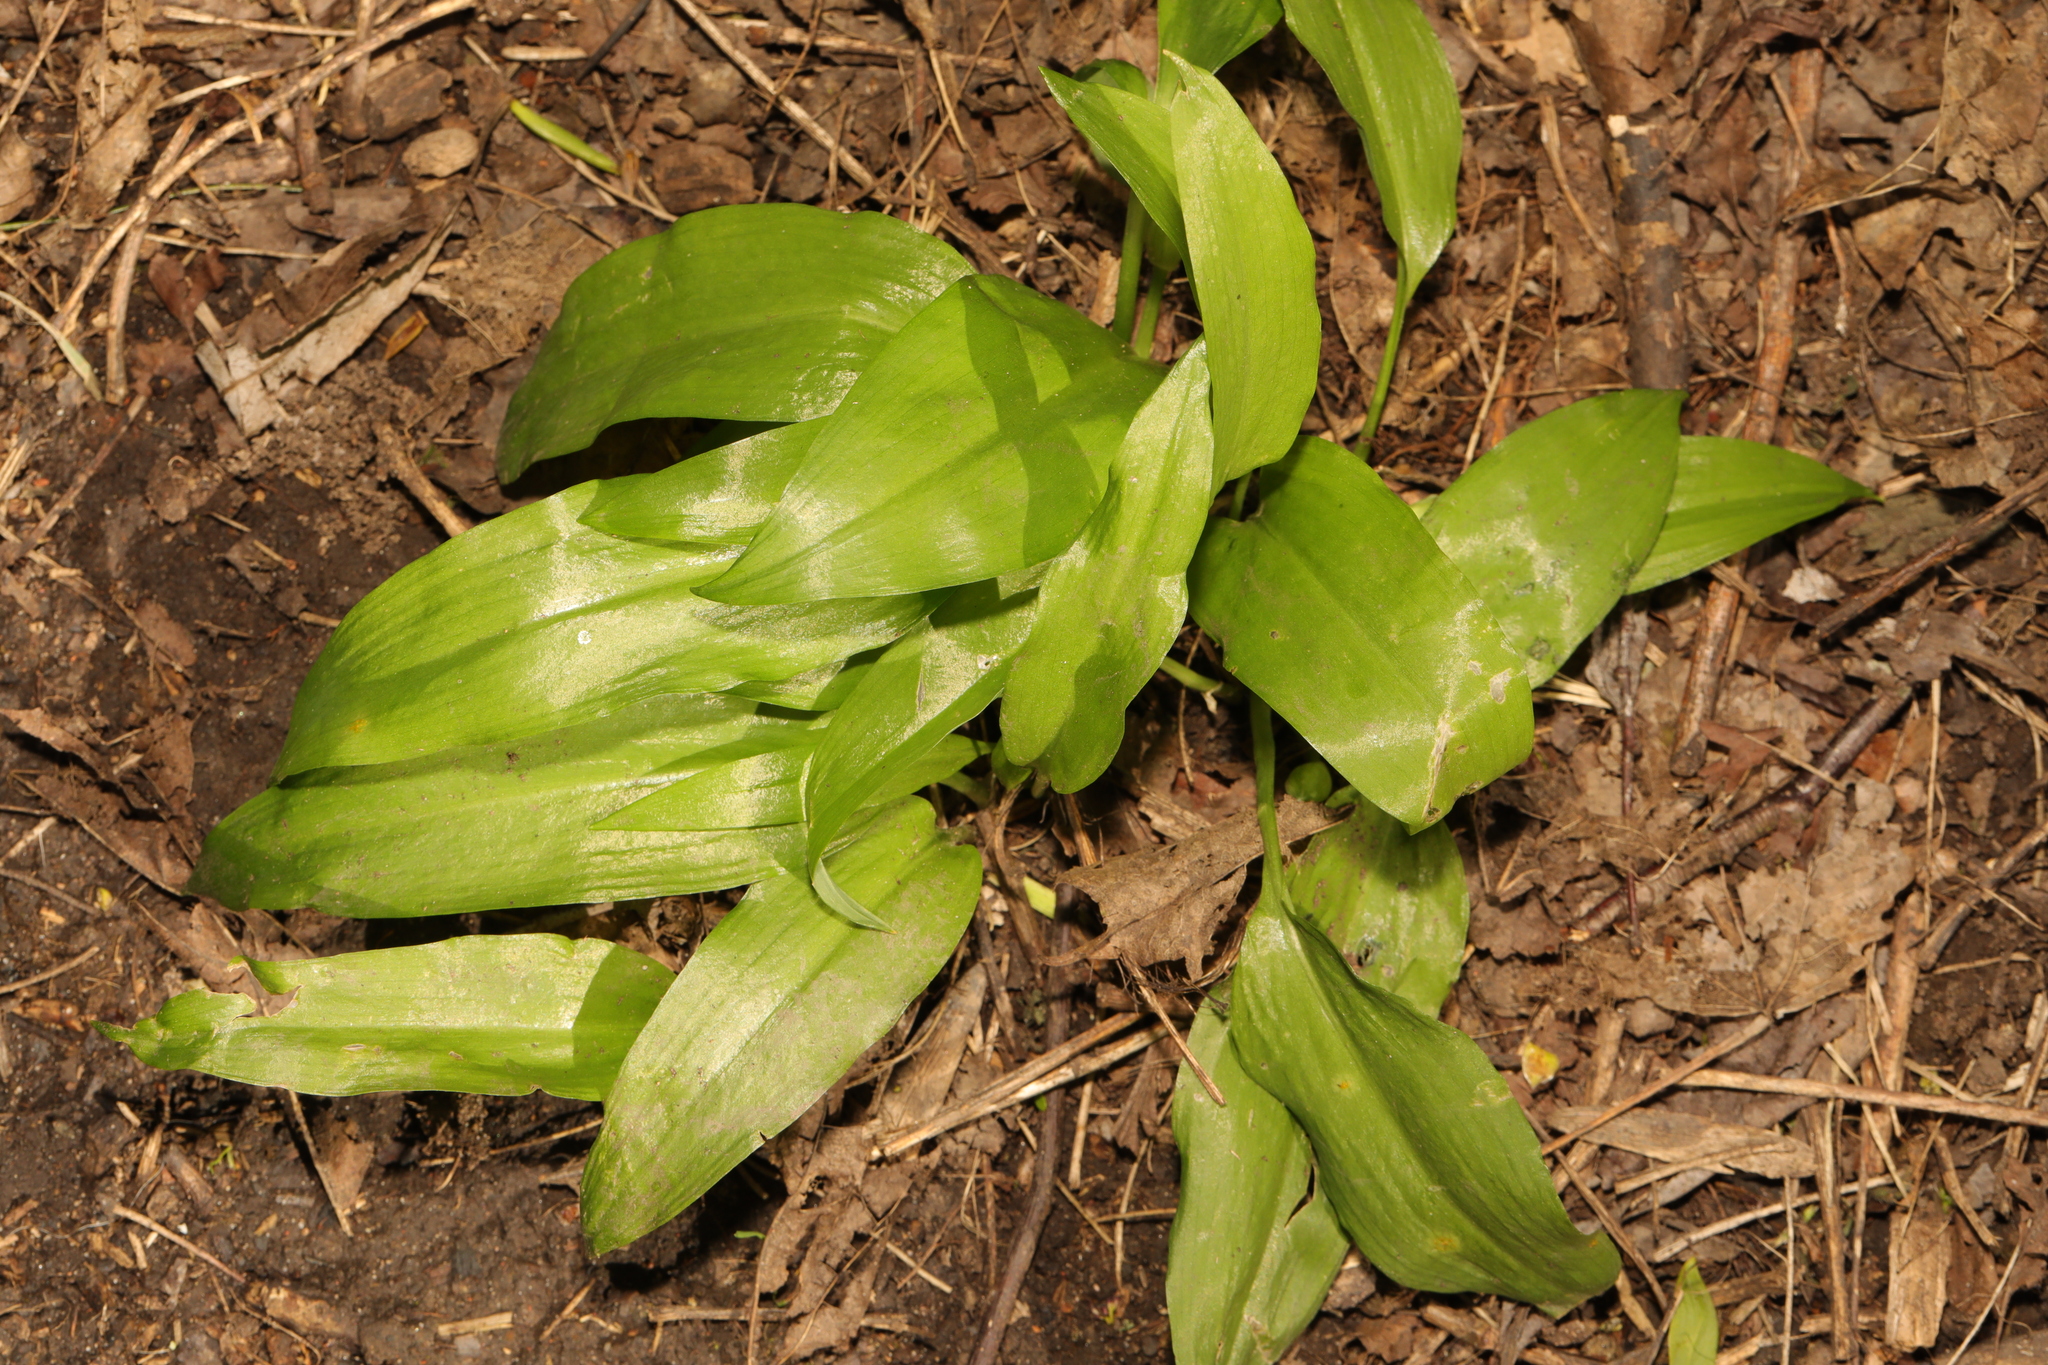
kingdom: Plantae
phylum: Tracheophyta
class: Liliopsida
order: Asparagales
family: Amaryllidaceae
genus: Allium
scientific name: Allium ursinum
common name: Ramsons
